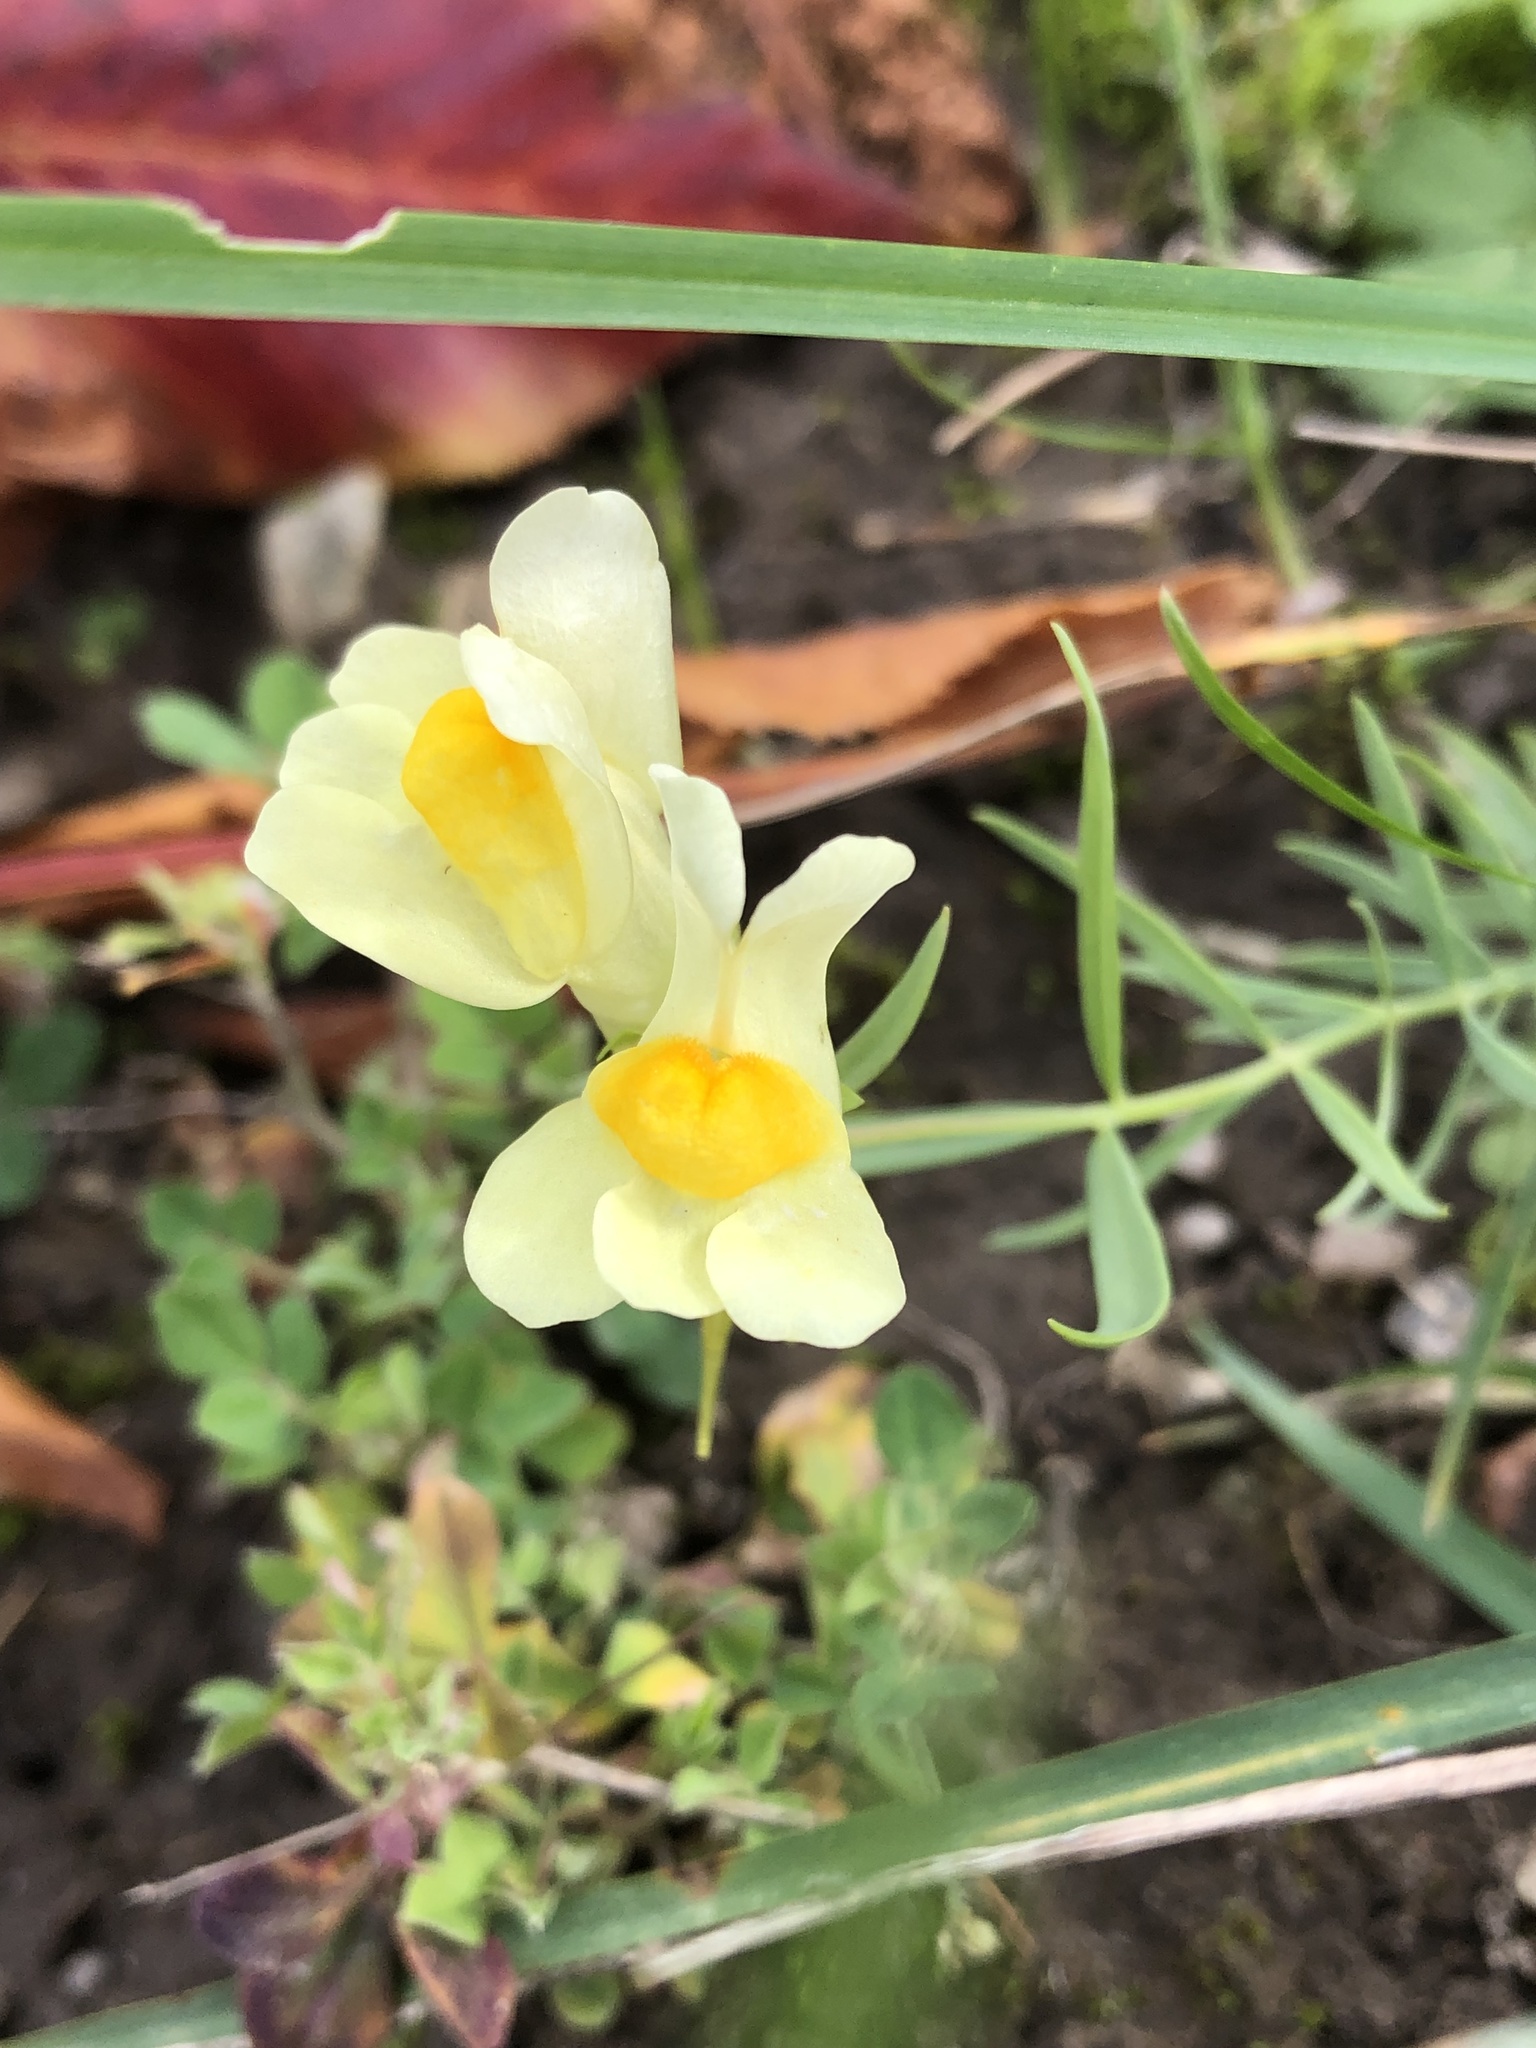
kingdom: Plantae
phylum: Tracheophyta
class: Magnoliopsida
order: Lamiales
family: Plantaginaceae
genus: Linaria
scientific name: Linaria vulgaris
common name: Butter and eggs
